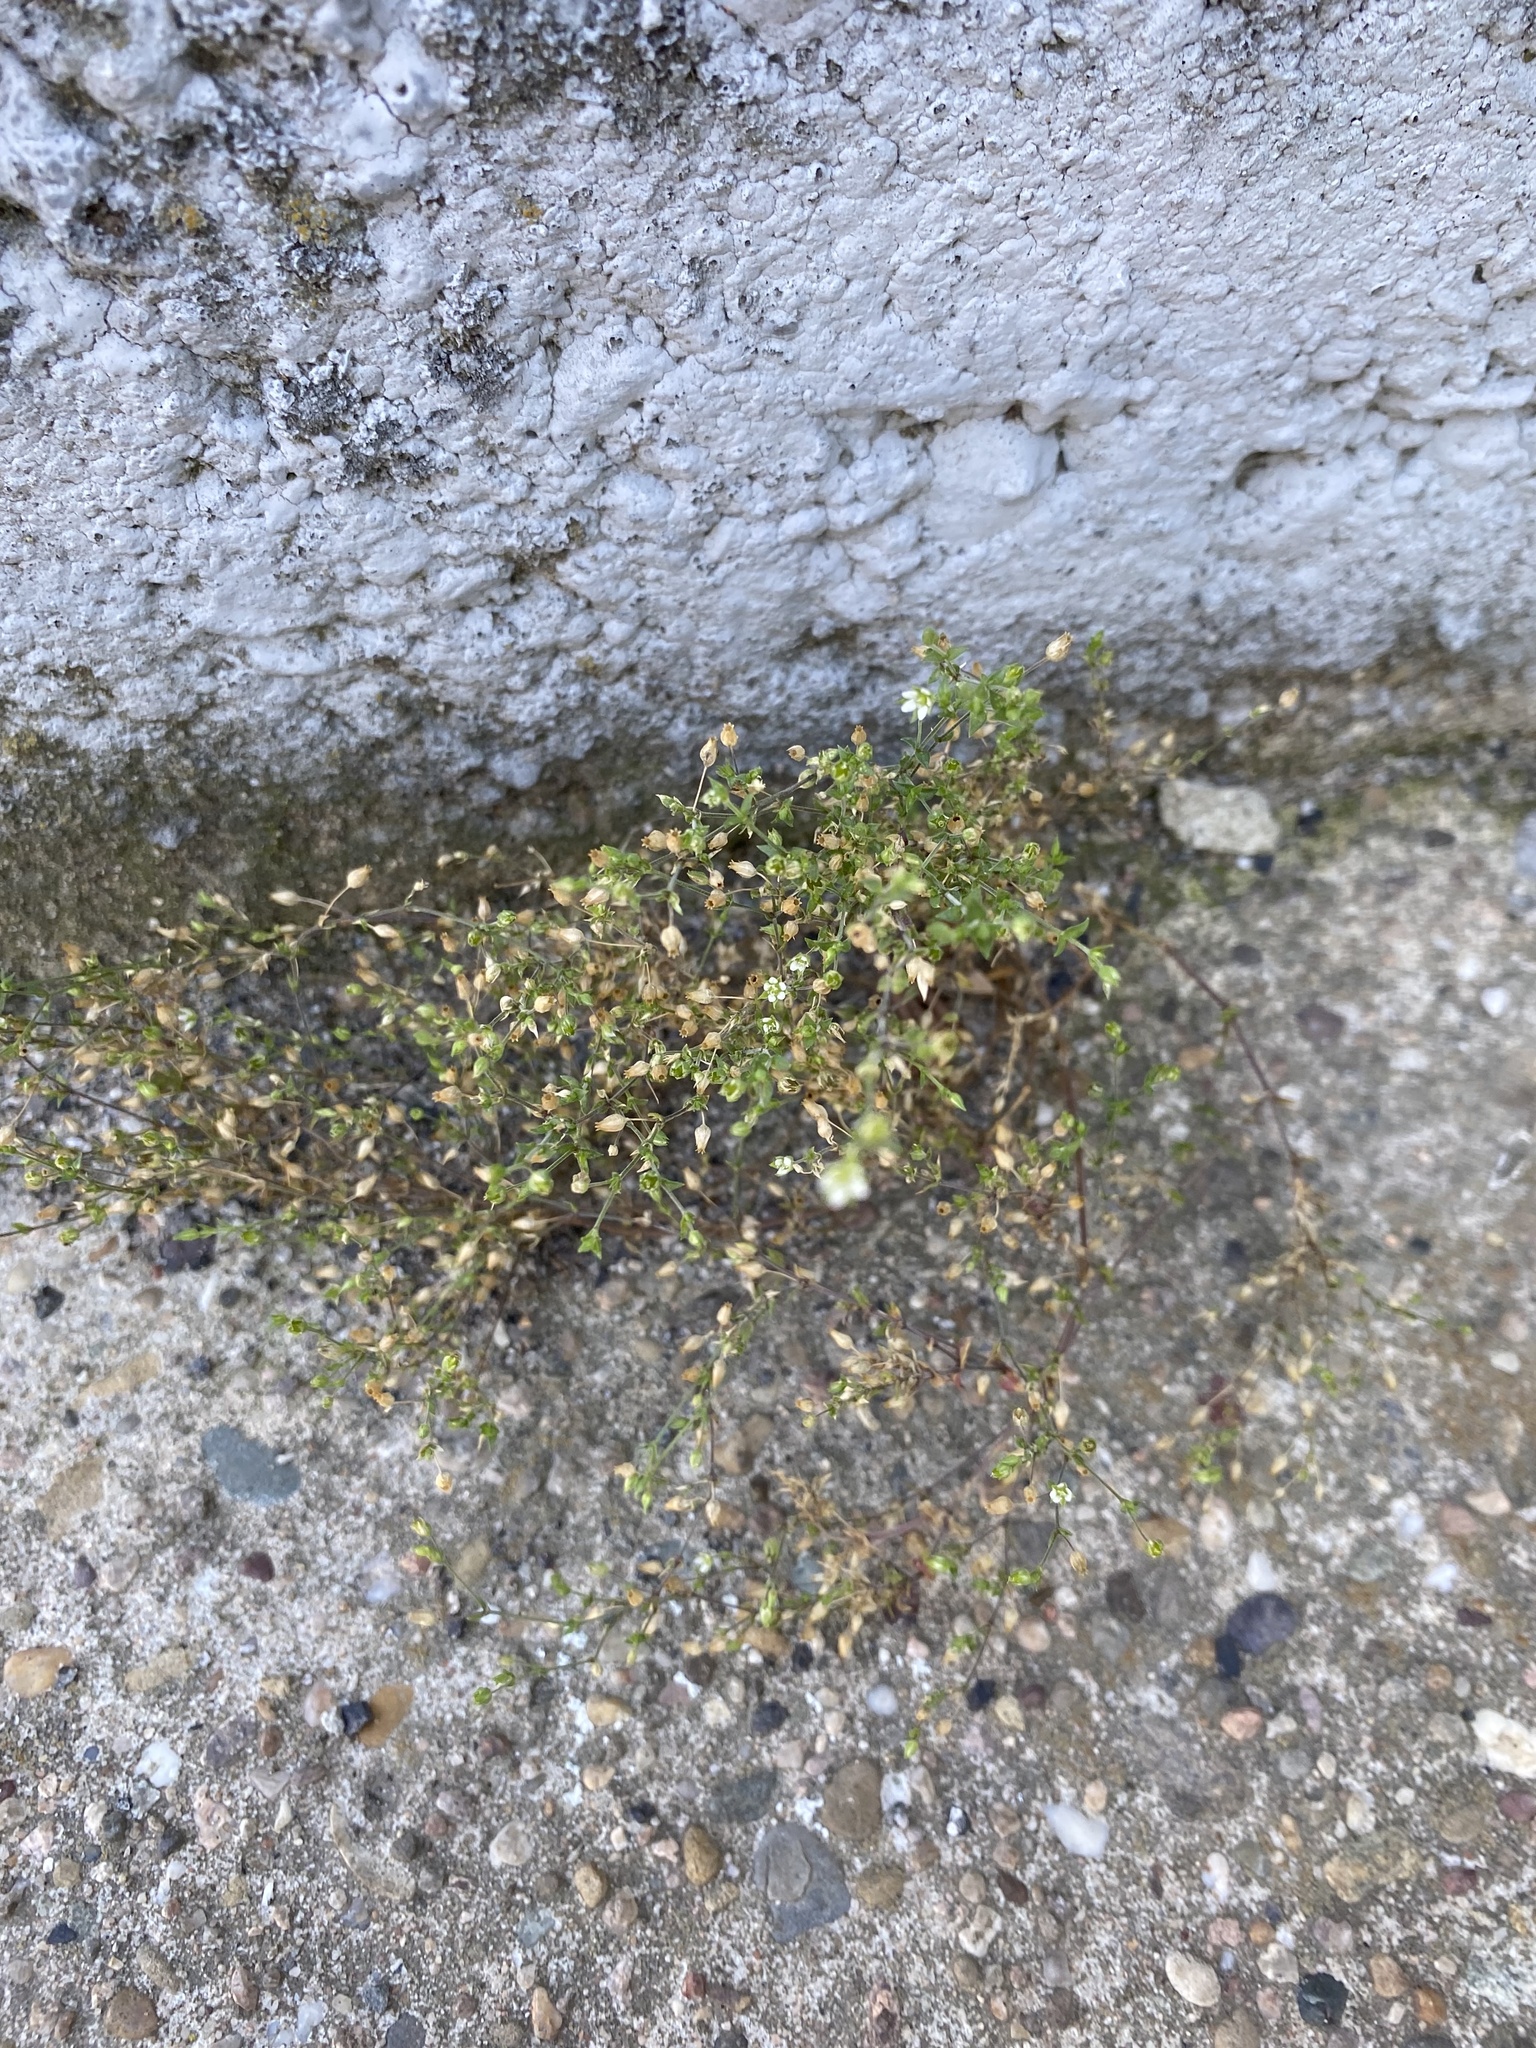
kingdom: Plantae
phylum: Tracheophyta
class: Magnoliopsida
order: Caryophyllales
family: Caryophyllaceae
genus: Arenaria
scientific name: Arenaria leptoclados
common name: Thyme-leaved sandwort
